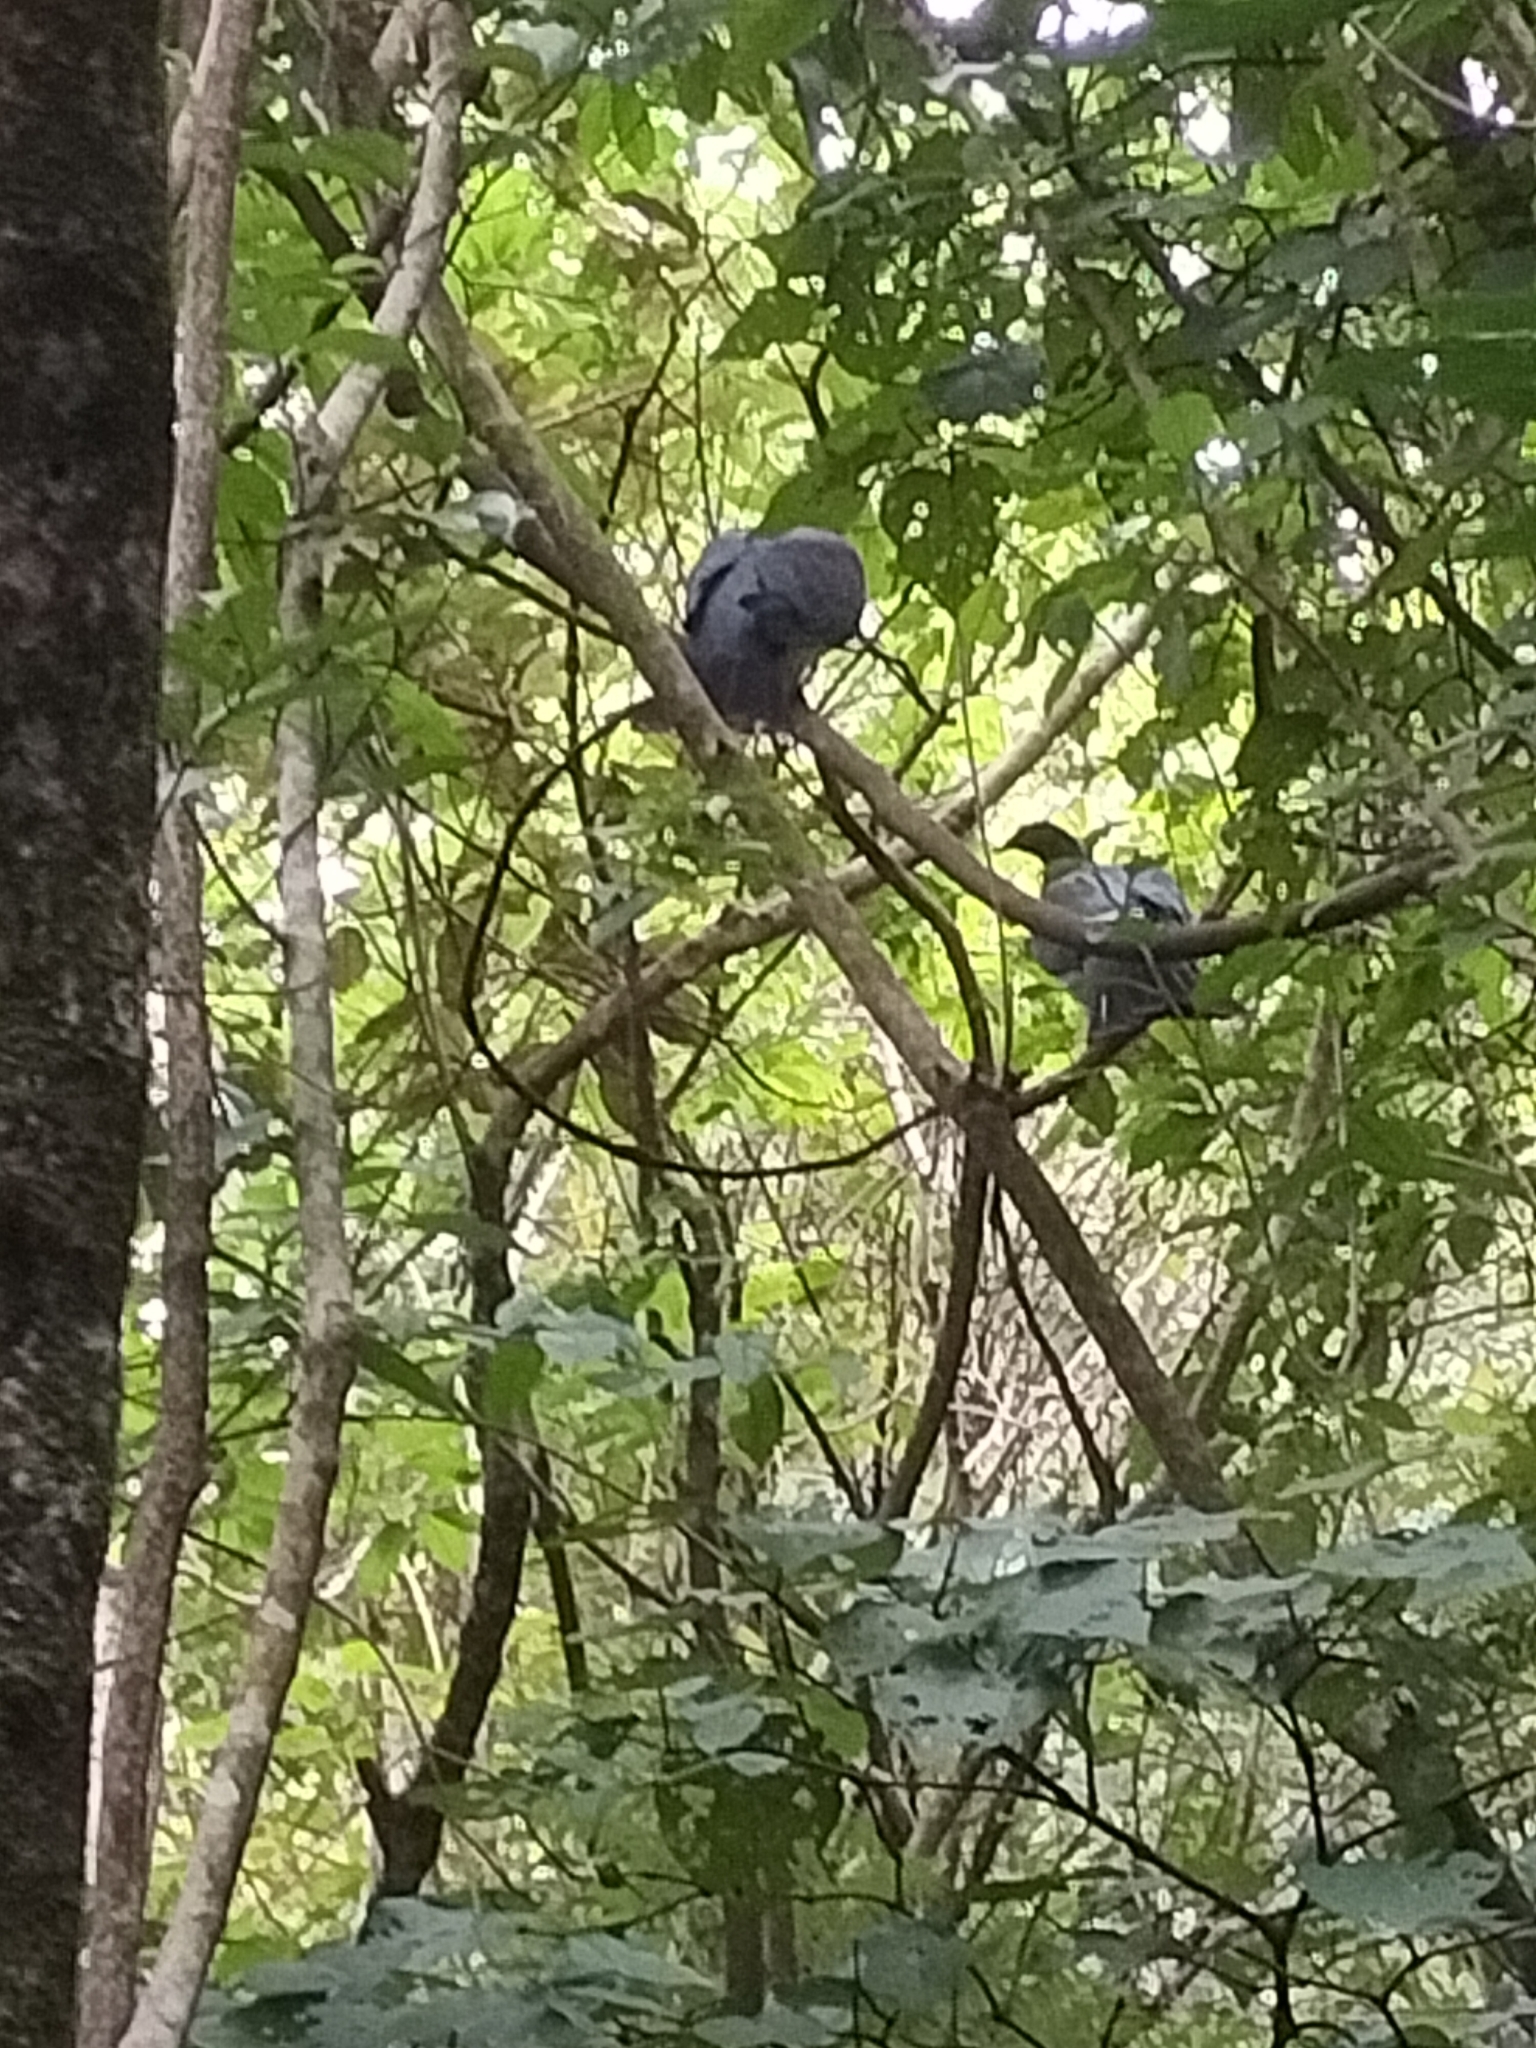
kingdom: Animalia
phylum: Chordata
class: Aves
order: Columbiformes
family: Columbidae
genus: Hemiphaga
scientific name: Hemiphaga novaeseelandiae
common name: New zealand pigeon
